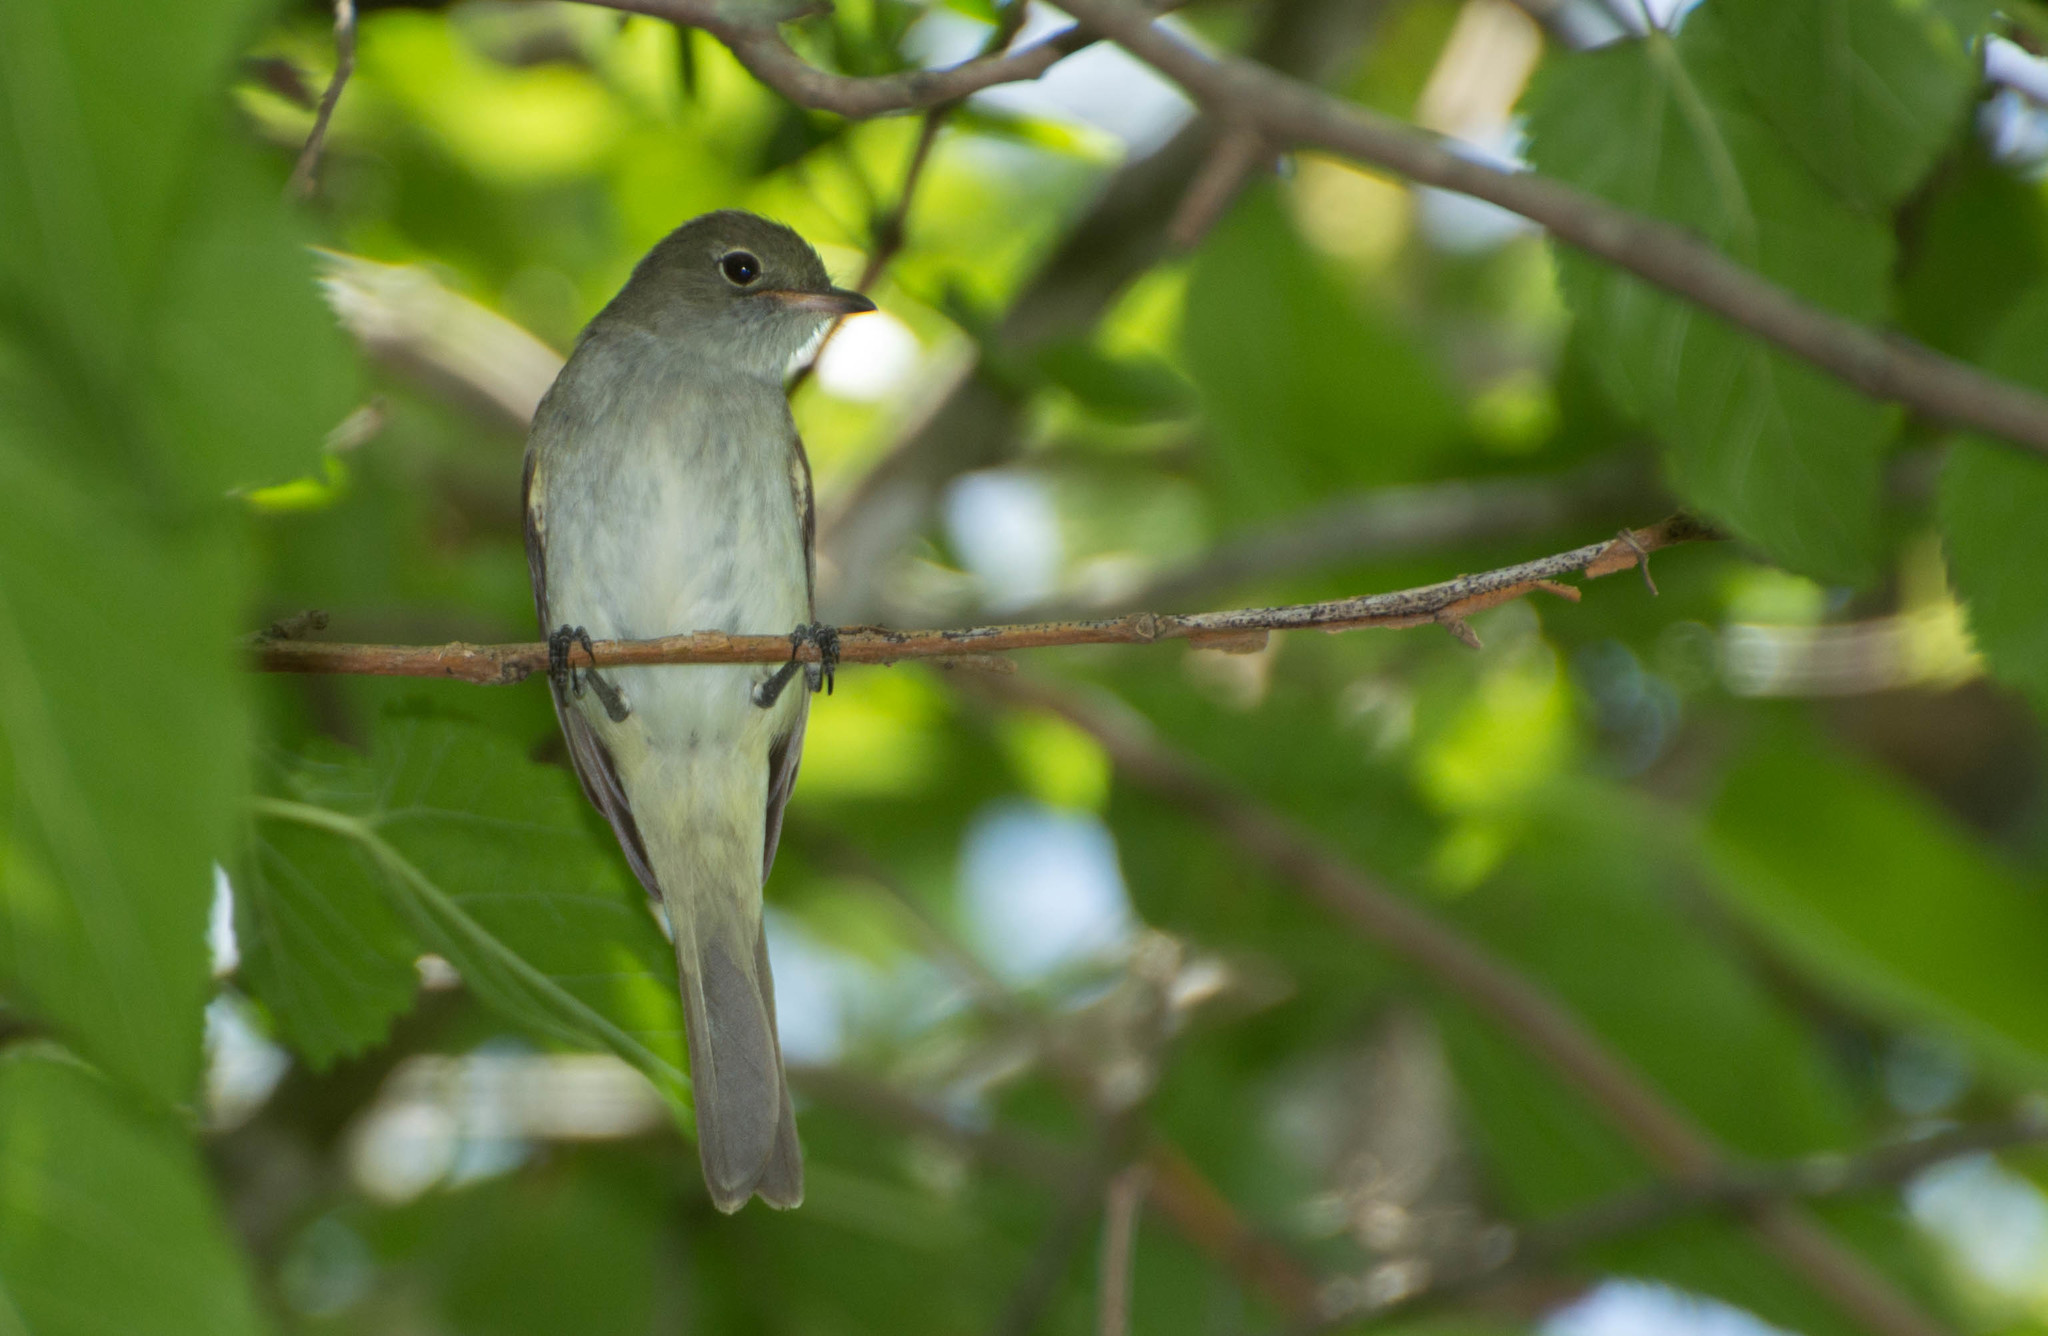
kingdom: Animalia
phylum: Chordata
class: Aves
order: Passeriformes
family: Tyrannidae
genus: Elaenia
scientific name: Elaenia parvirostris
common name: Small-billed elaenia
